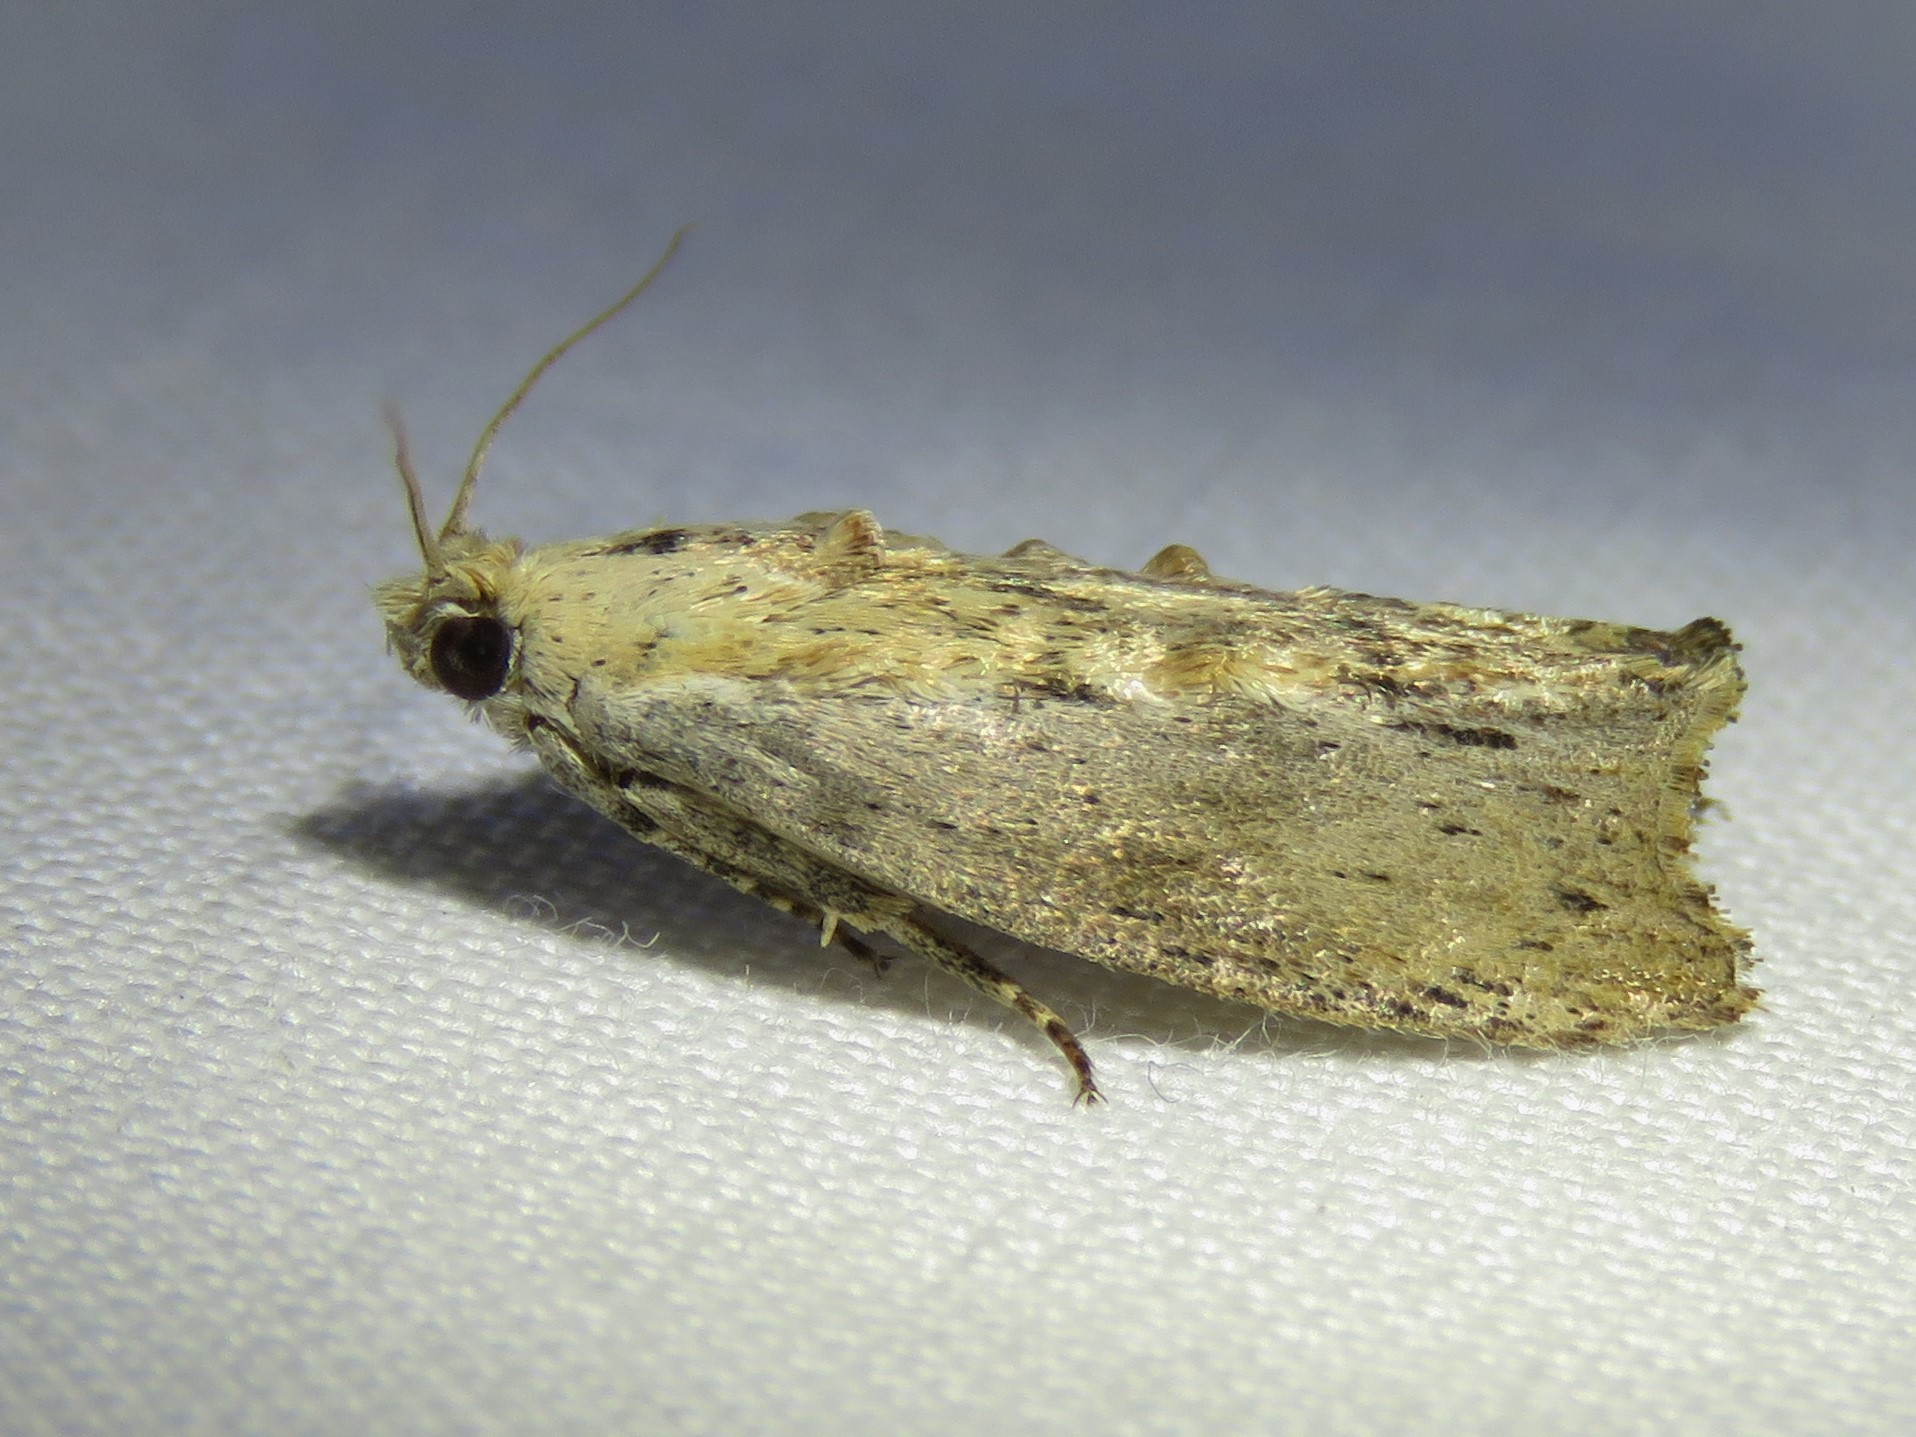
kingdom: Animalia
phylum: Arthropoda
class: Insecta
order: Lepidoptera
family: Pyralidae
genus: Galleria
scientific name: Galleria mellonella
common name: Greater wax moth
